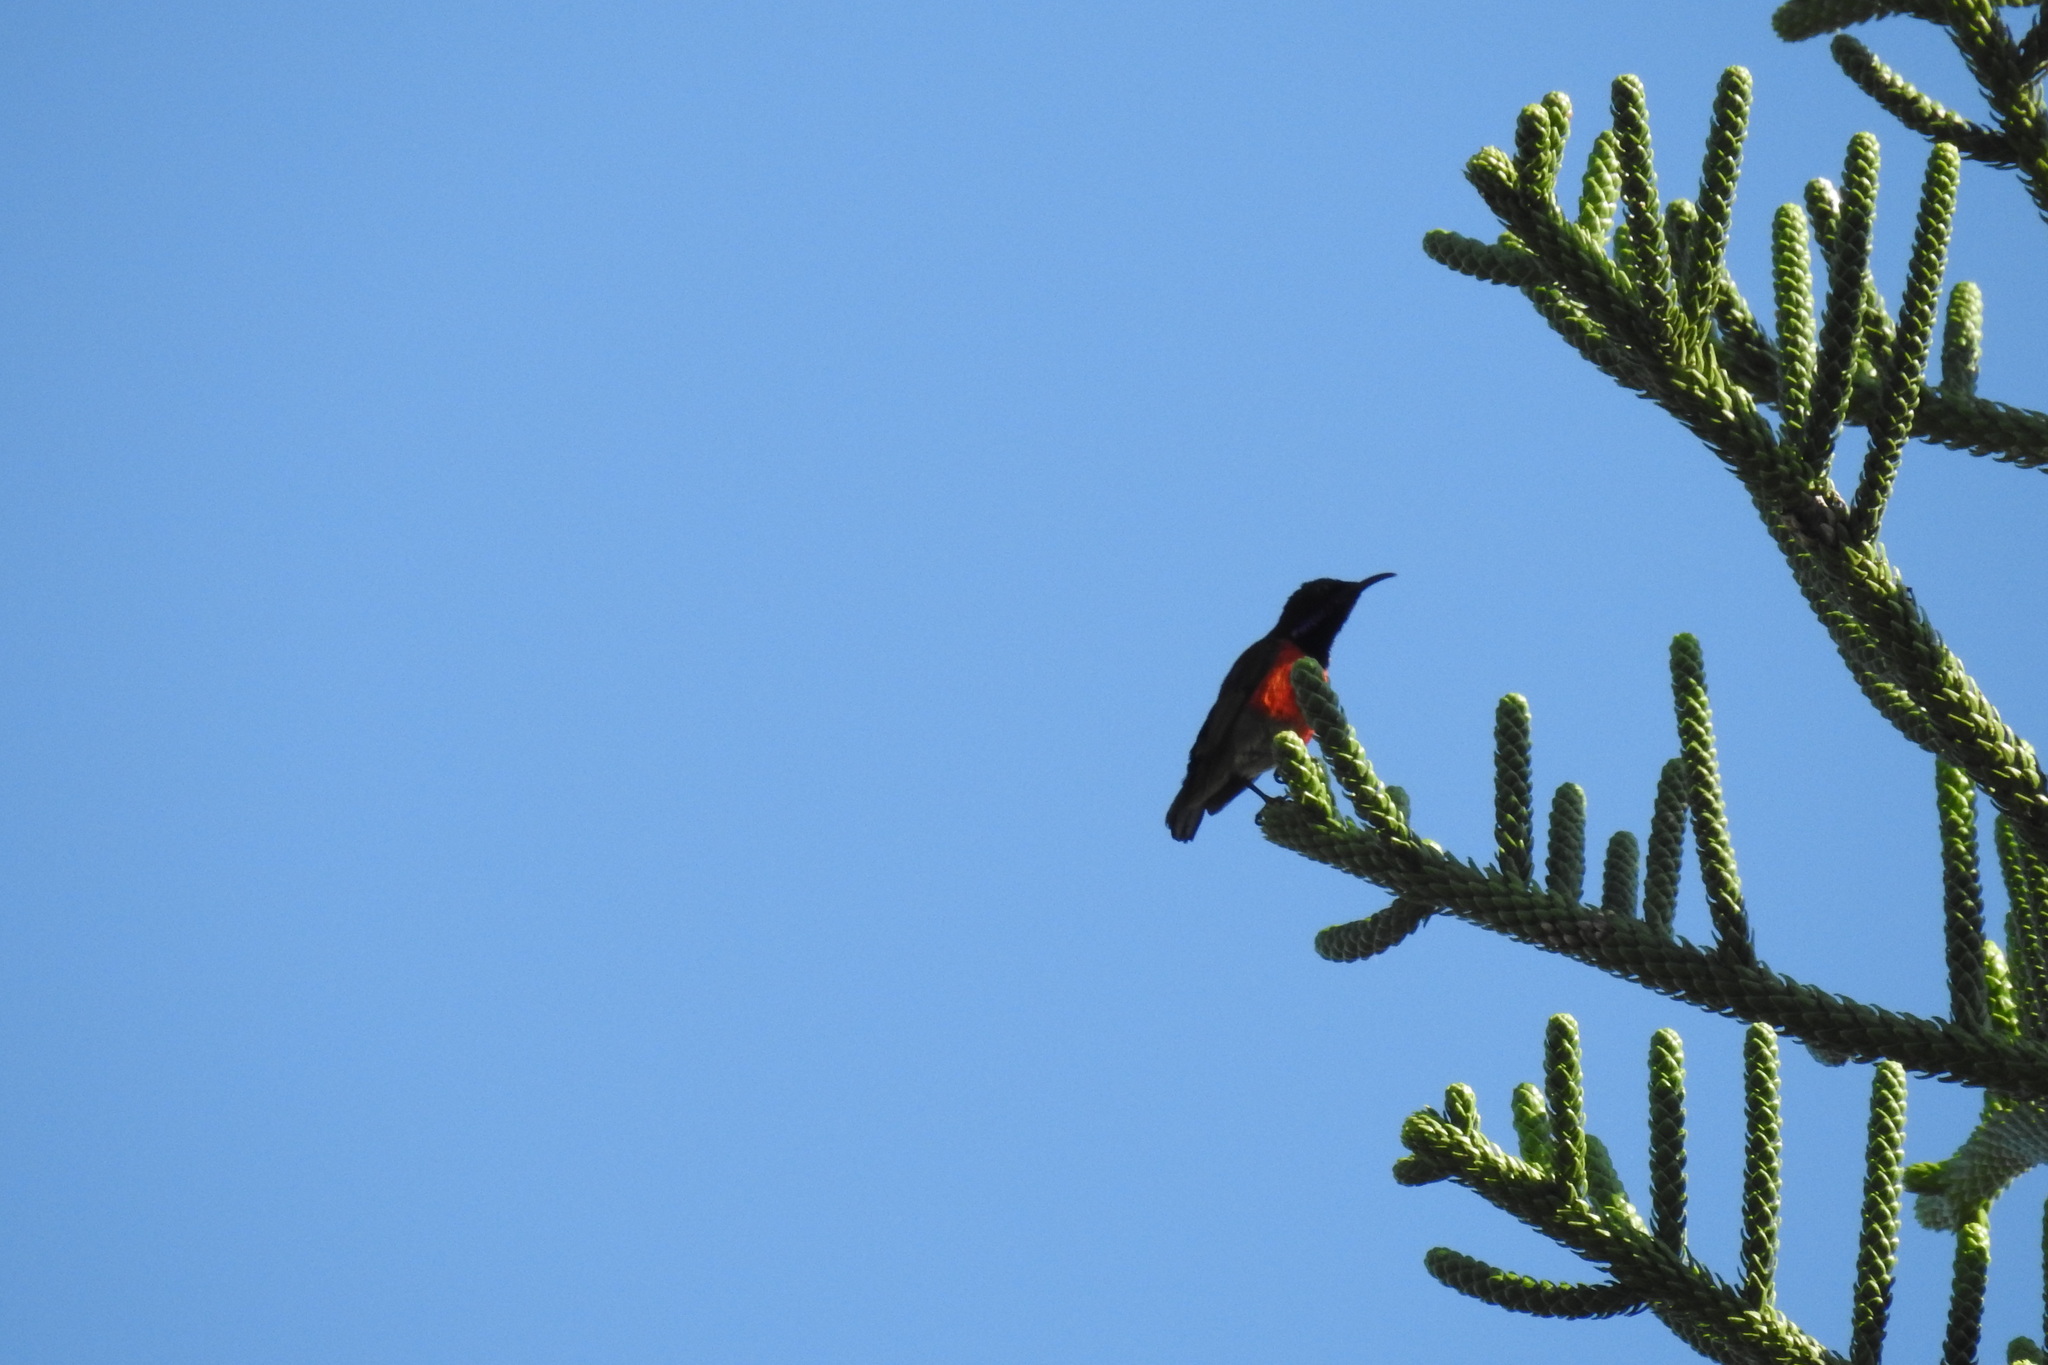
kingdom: Animalia
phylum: Chordata
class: Aves
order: Passeriformes
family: Nectariniidae
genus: Leptocoma
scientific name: Leptocoma sperata
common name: Purple-throated sunbird
